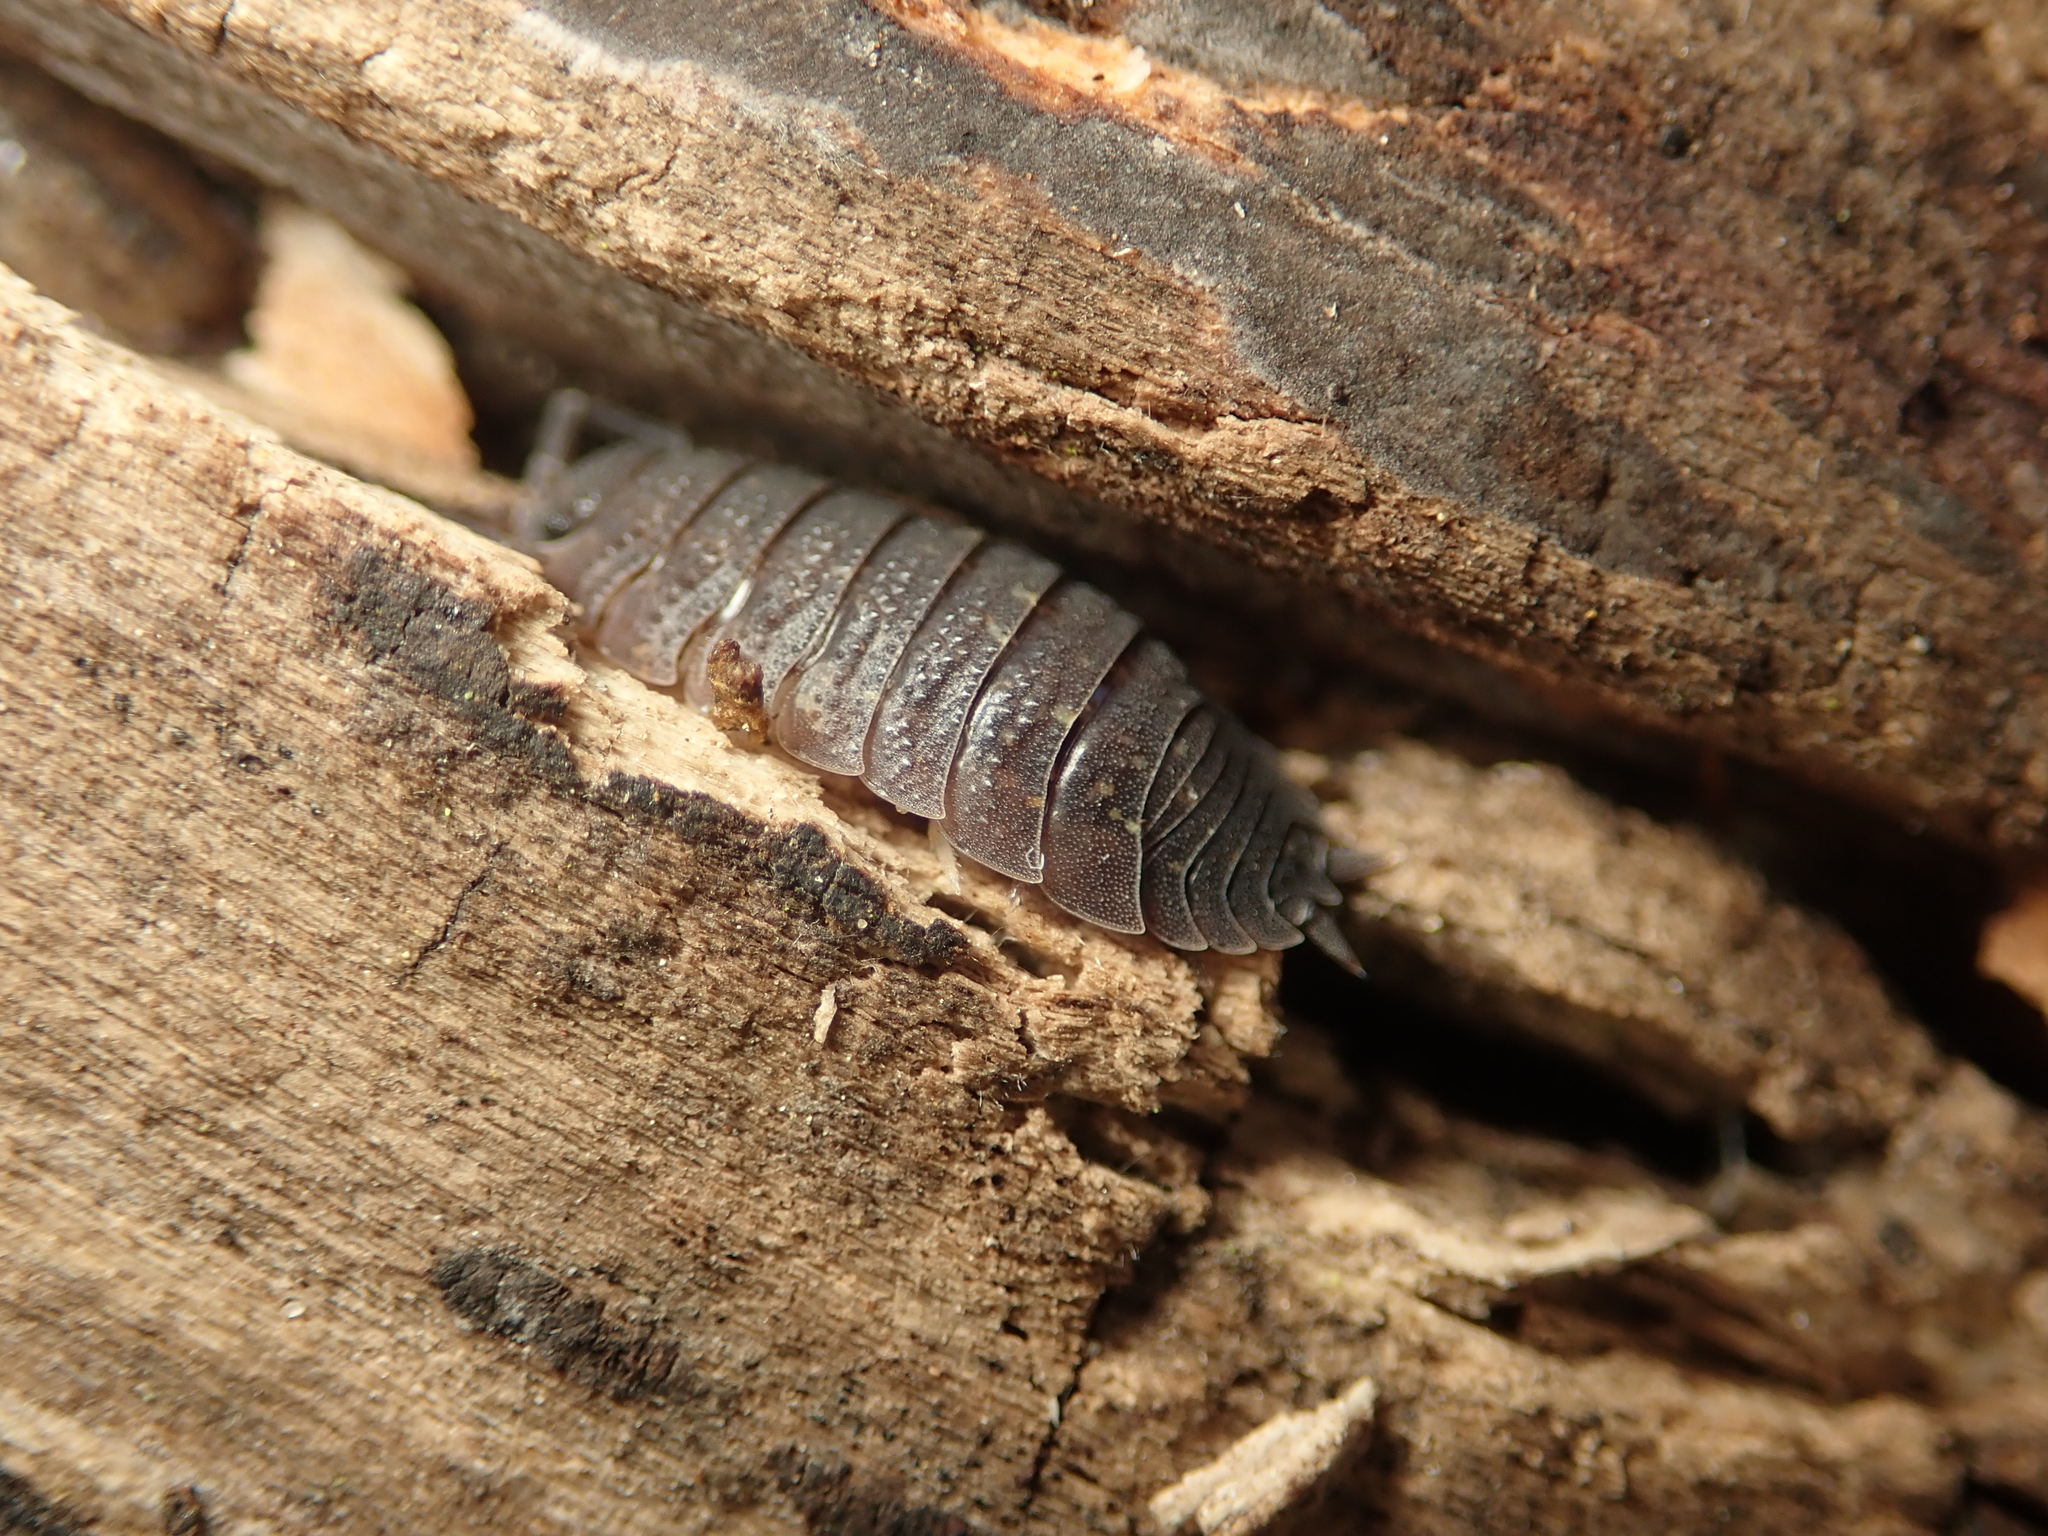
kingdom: Animalia
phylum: Arthropoda
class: Malacostraca
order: Isopoda
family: Porcellionidae
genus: Porcellio
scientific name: Porcellio scaber
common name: Common rough woodlouse
